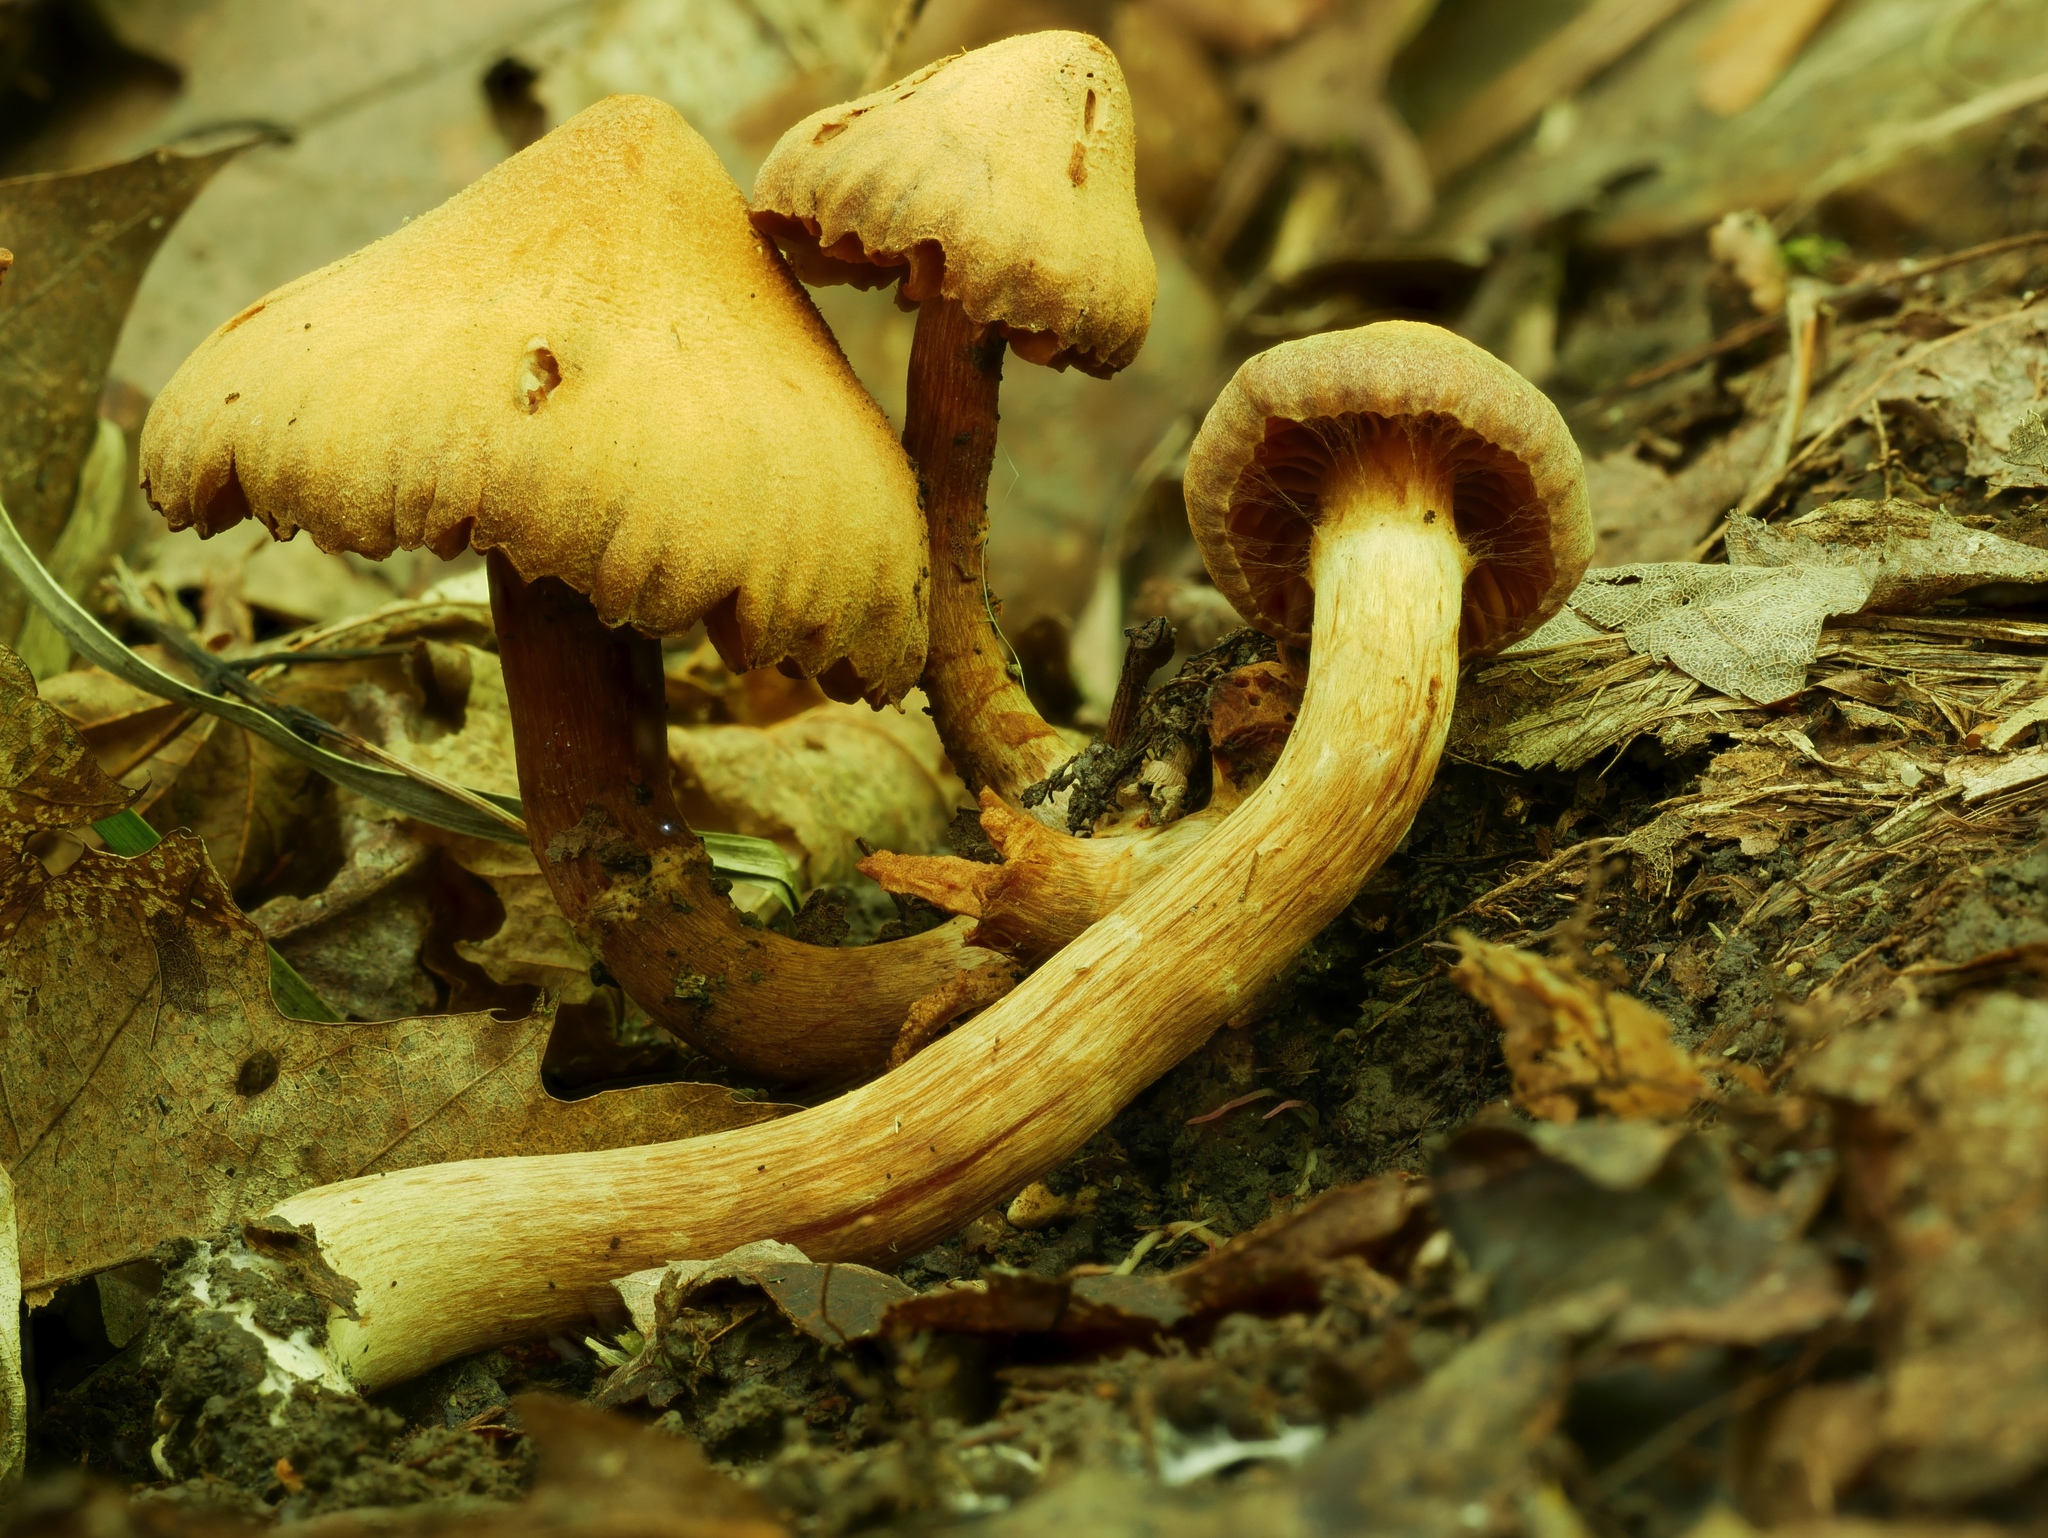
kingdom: Fungi
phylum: Basidiomycota
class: Agaricomycetes
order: Agaricales
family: Cortinariaceae
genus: Cortinarius
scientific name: Cortinarius
